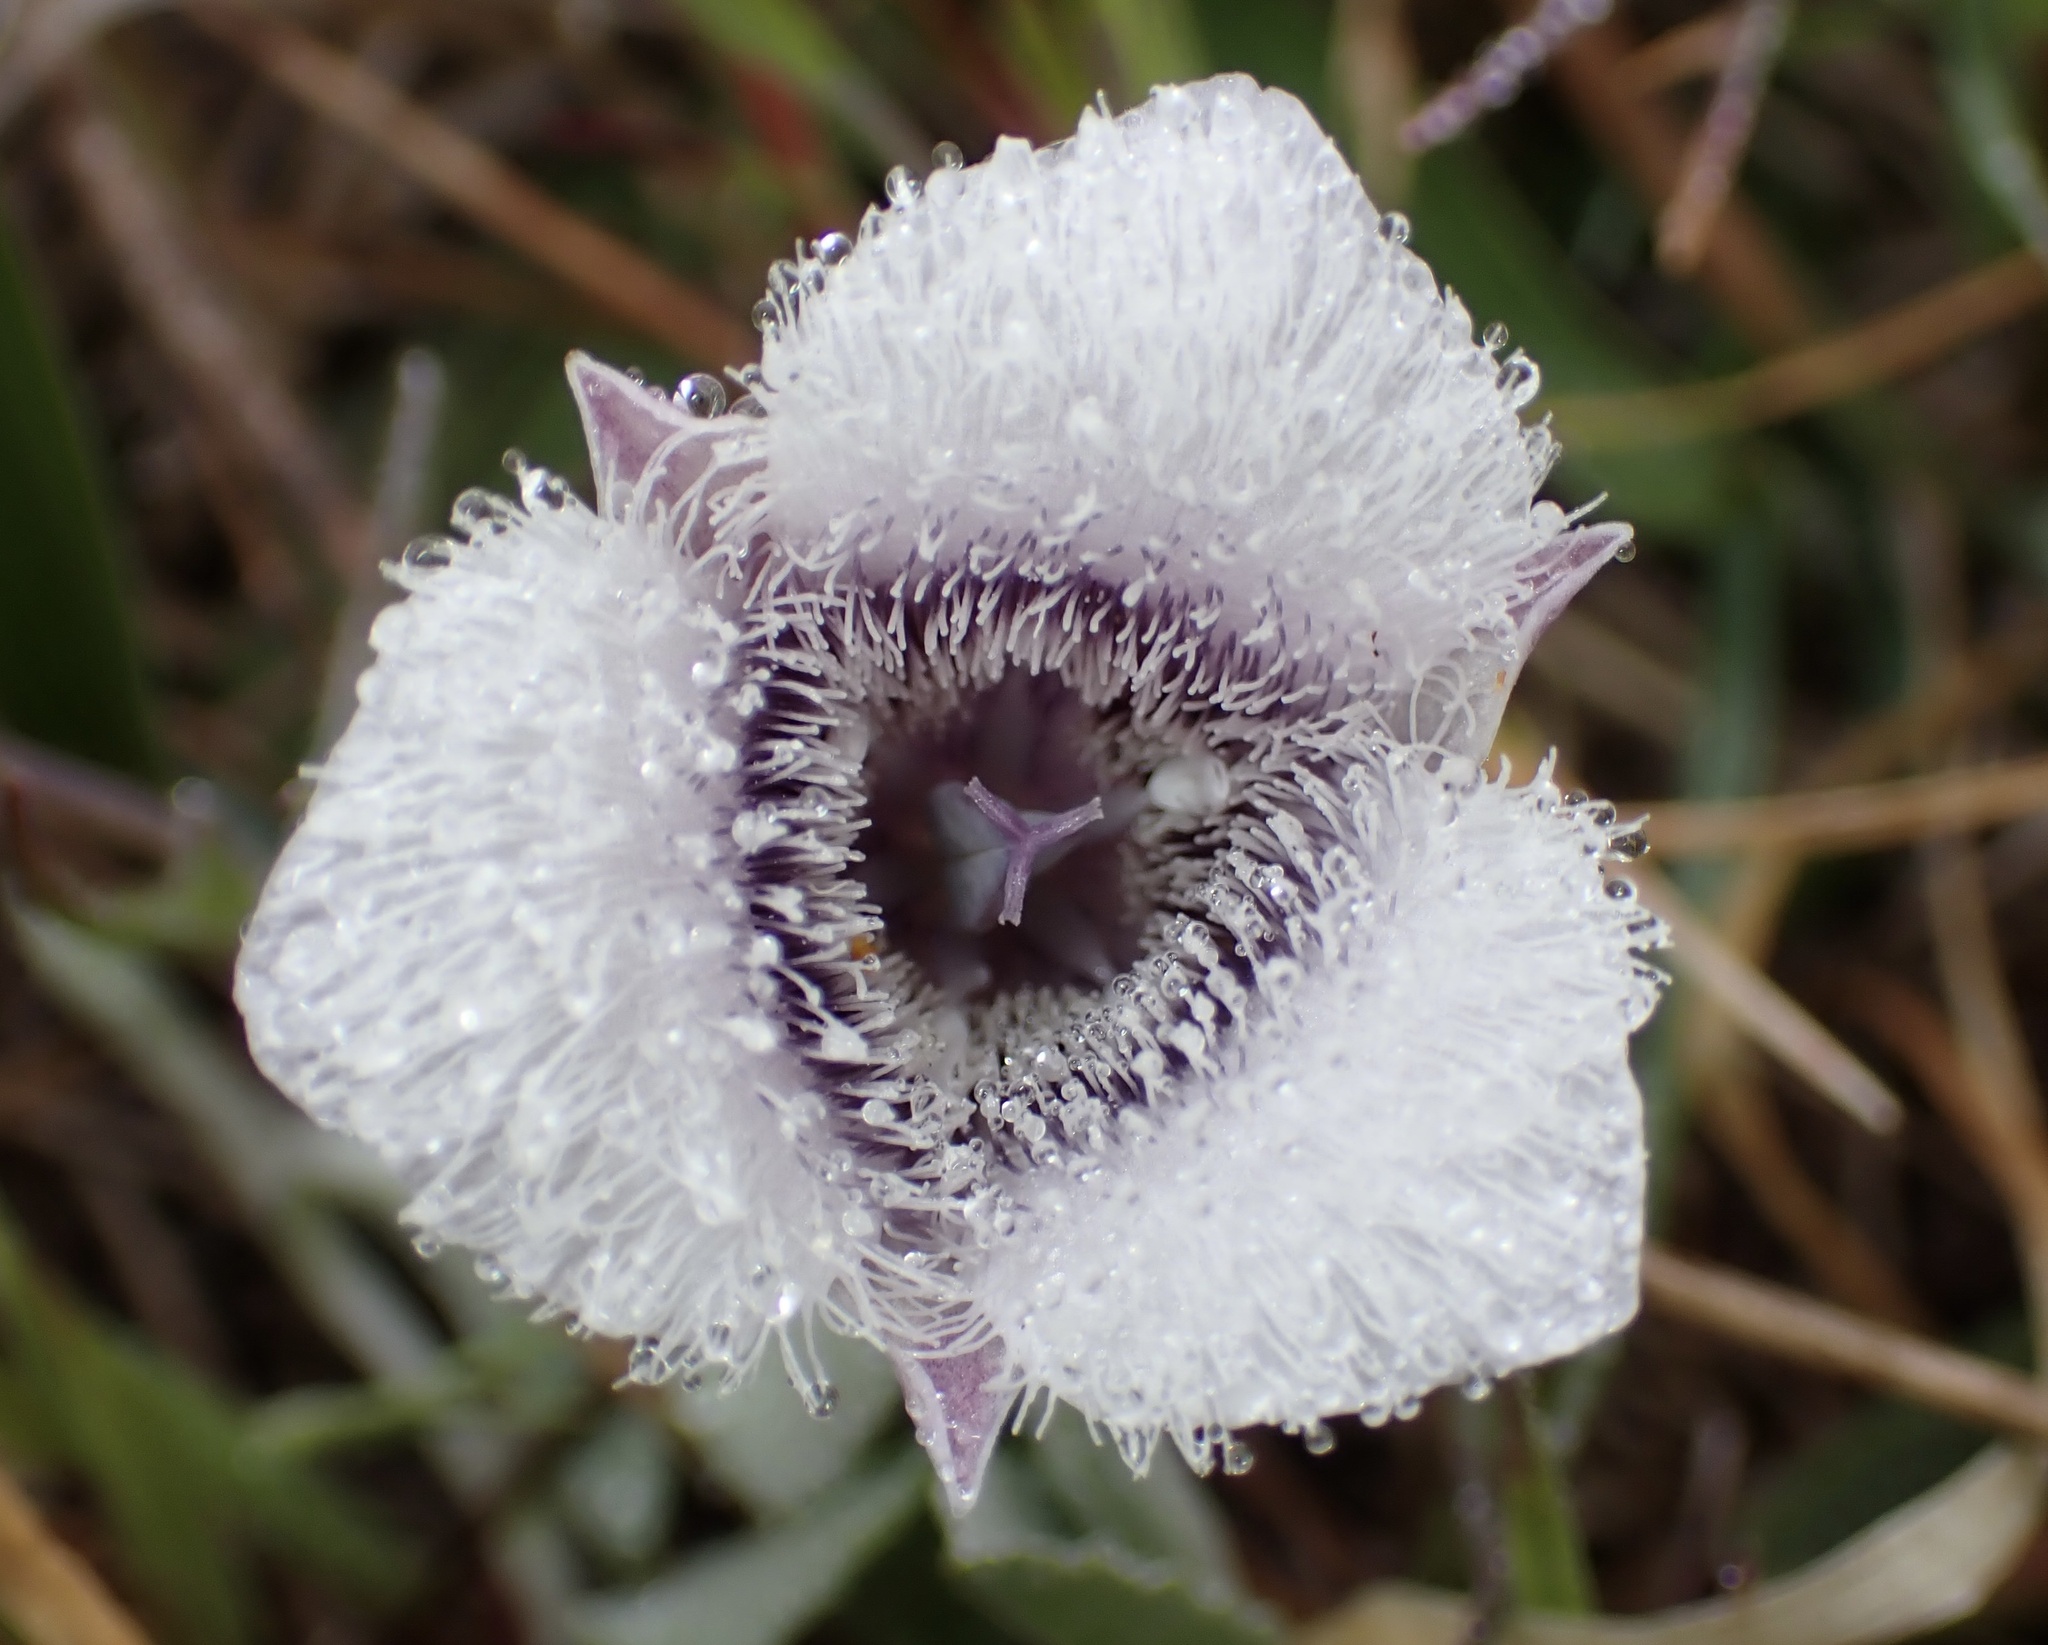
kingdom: Plantae
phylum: Tracheophyta
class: Liliopsida
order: Liliales
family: Liliaceae
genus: Calochortus
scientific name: Calochortus tolmiei
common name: Pussy-ears
